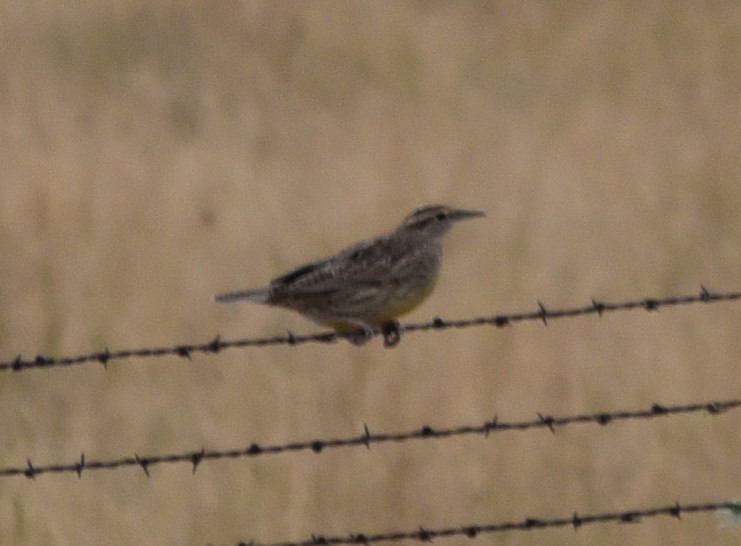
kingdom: Animalia
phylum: Chordata
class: Aves
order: Passeriformes
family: Icteridae
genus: Sturnella
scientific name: Sturnella neglecta
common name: Western meadowlark
